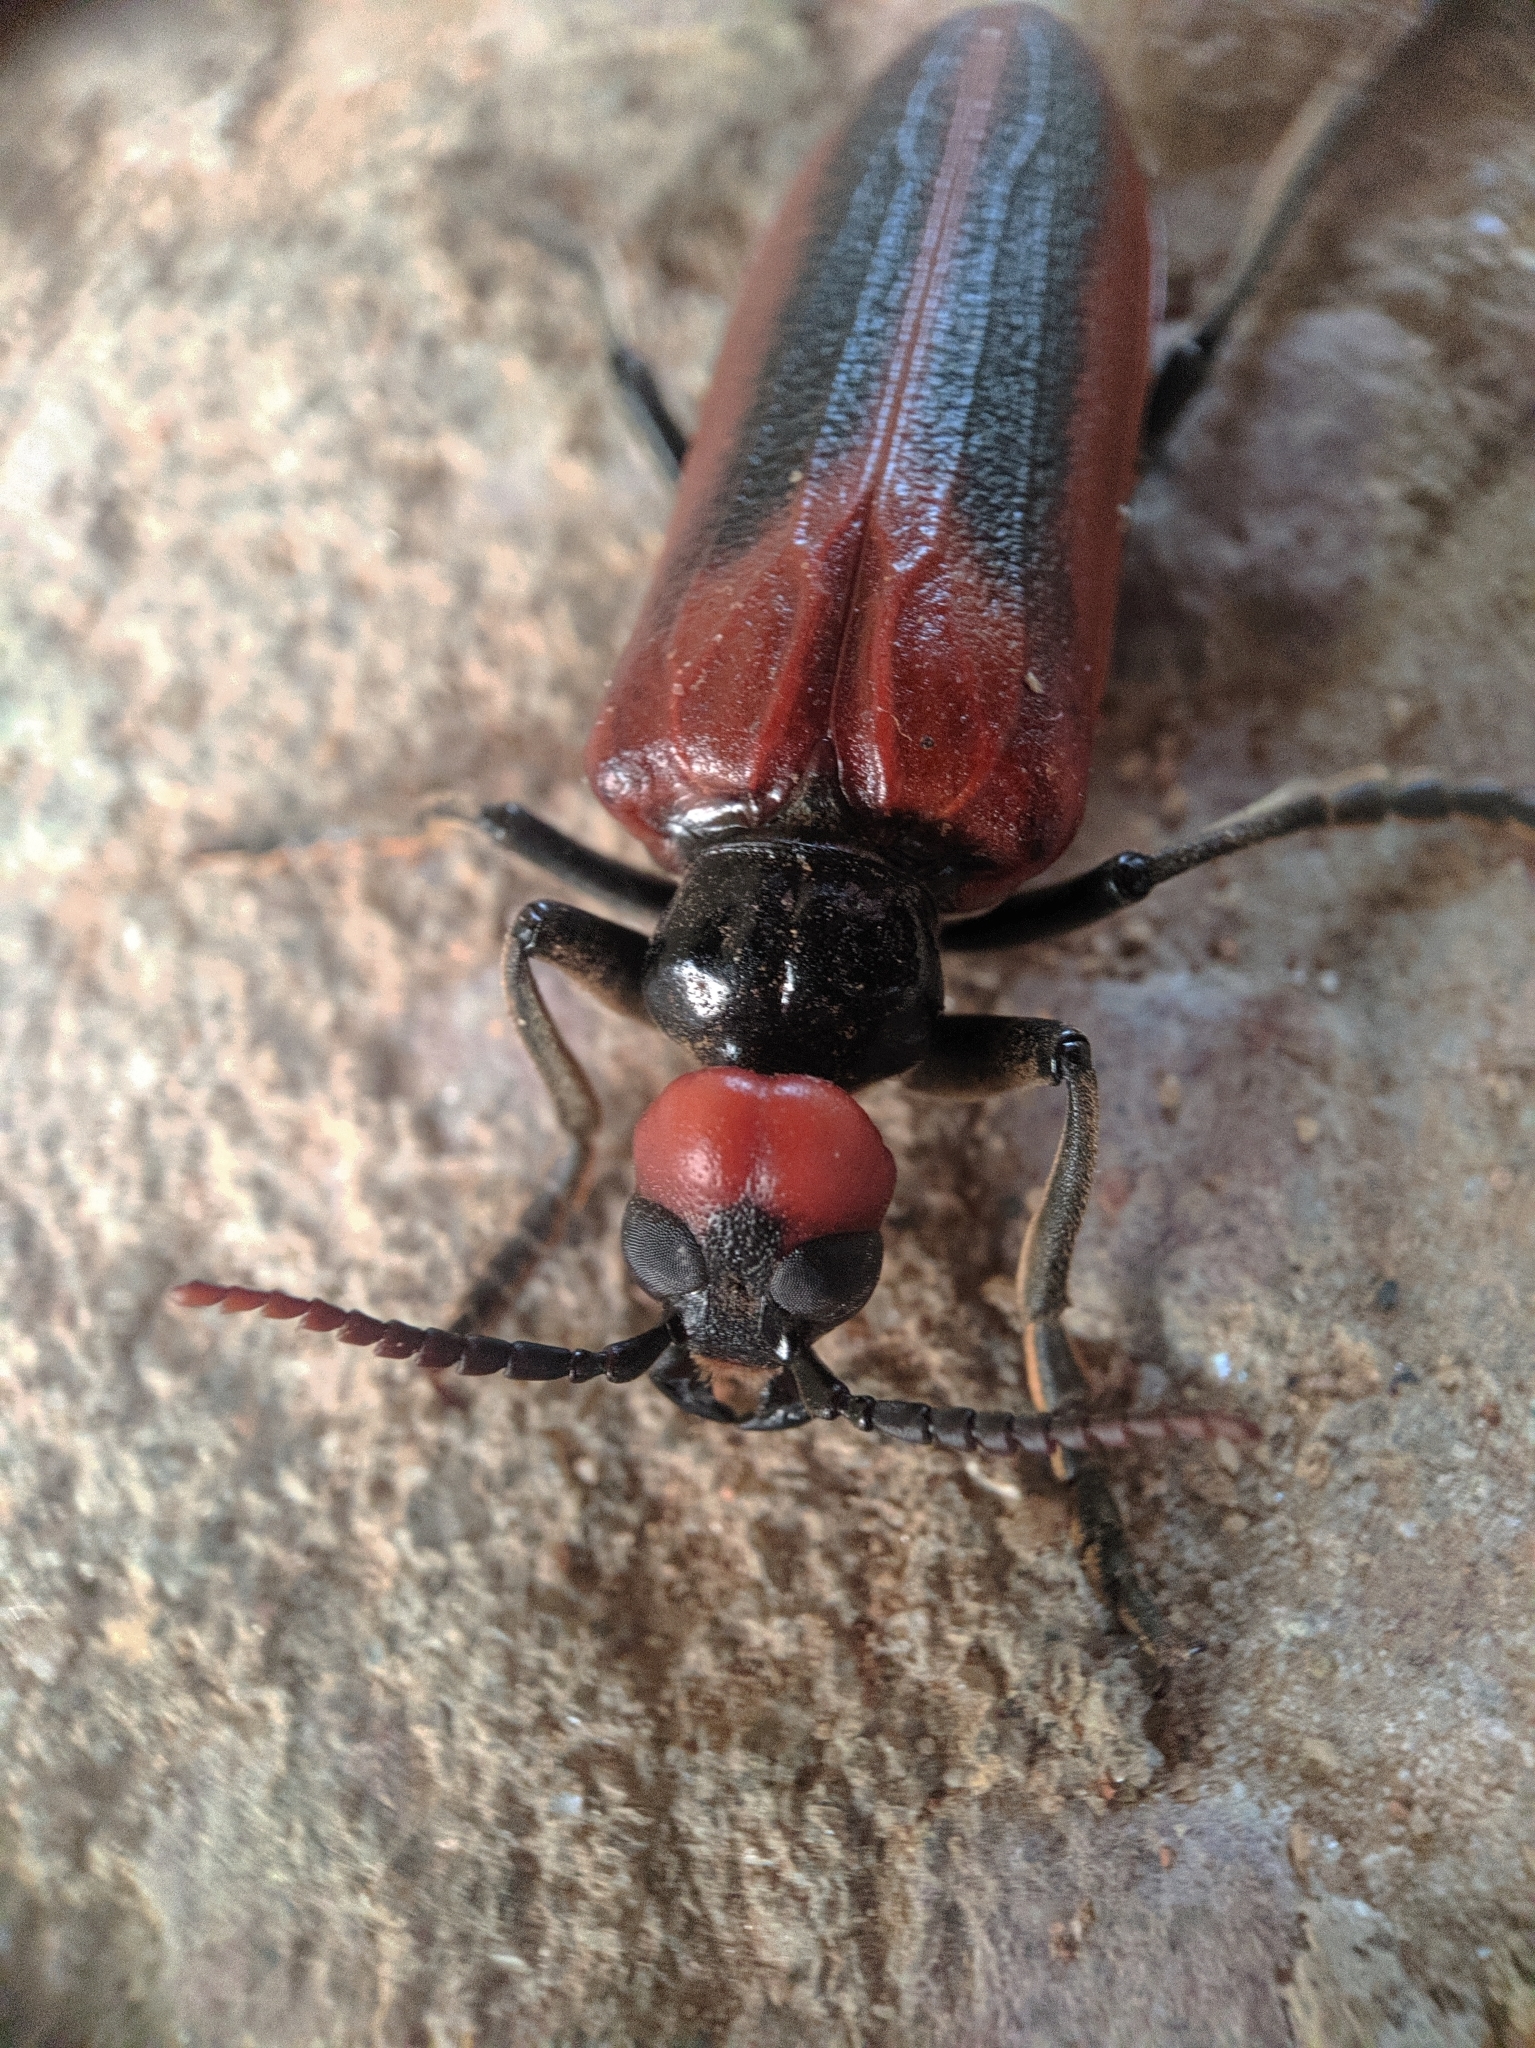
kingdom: Animalia
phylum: Arthropoda
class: Insecta
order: Coleoptera
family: Meloidae
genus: Eletica
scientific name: Eletica
